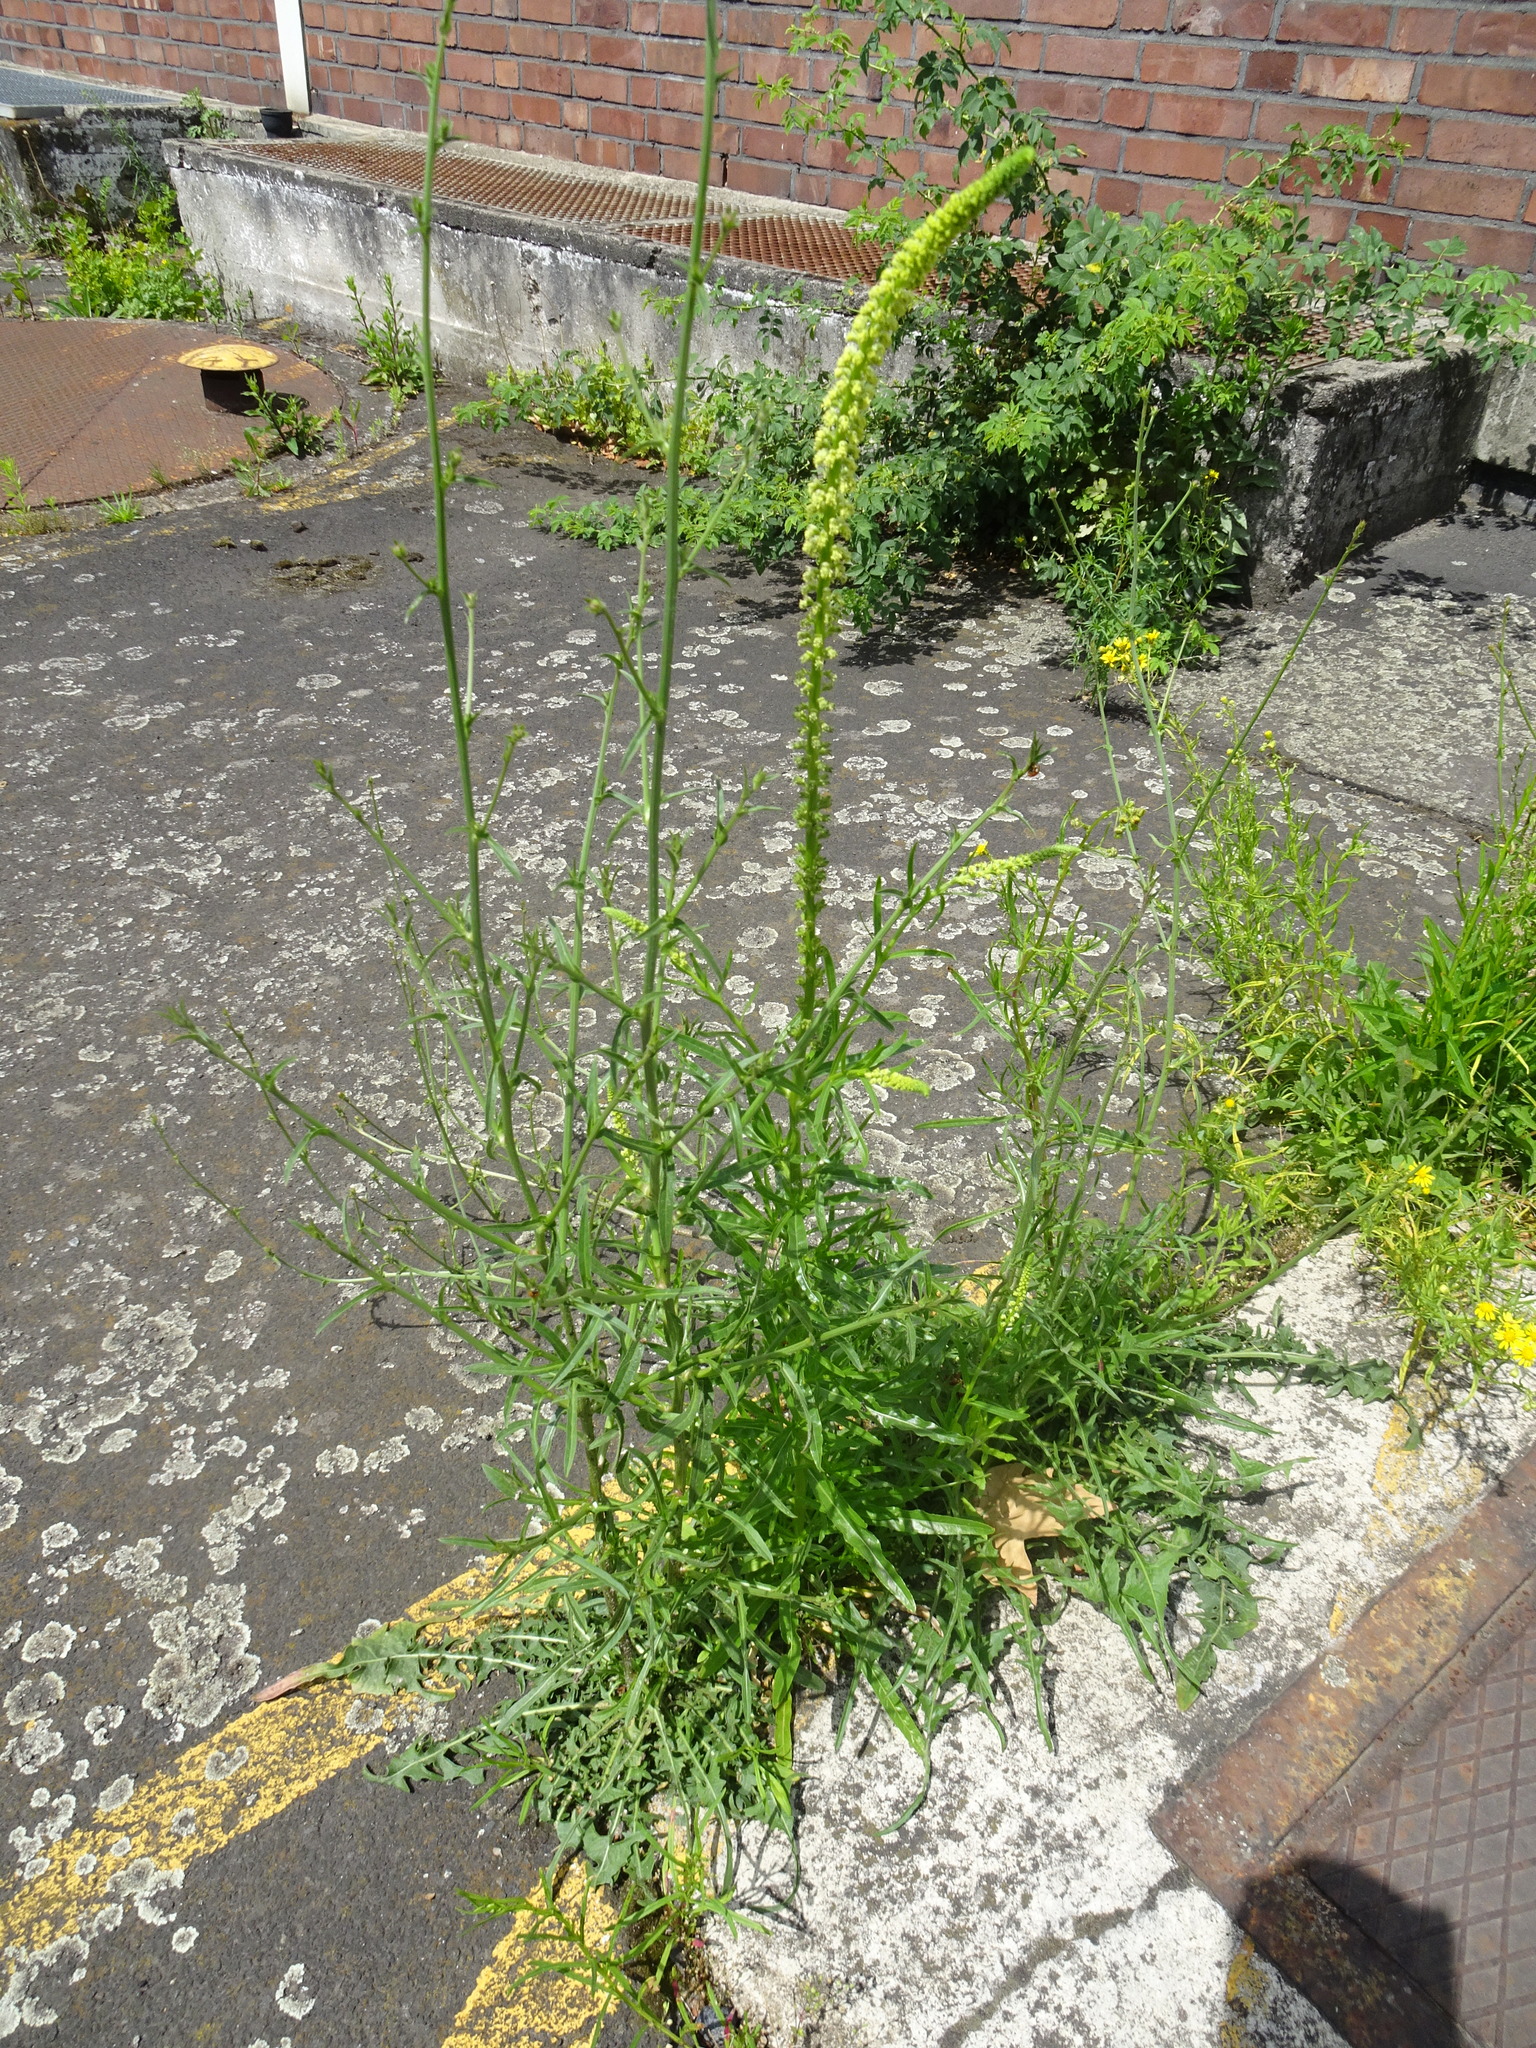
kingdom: Plantae
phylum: Tracheophyta
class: Magnoliopsida
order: Brassicales
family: Resedaceae
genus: Reseda
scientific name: Reseda luteola
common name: Weld
